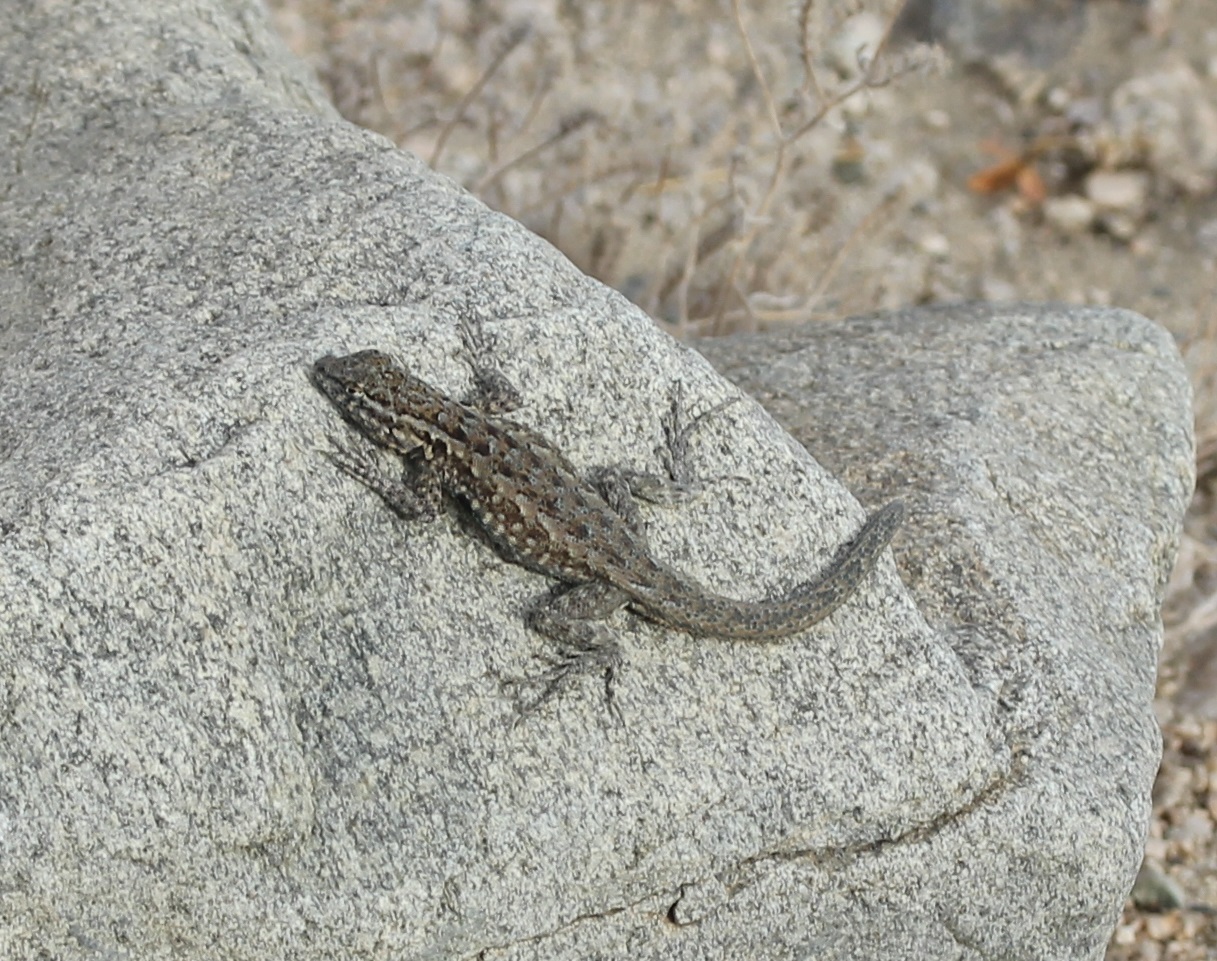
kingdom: Animalia
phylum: Chordata
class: Squamata
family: Phrynosomatidae
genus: Uta
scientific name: Uta stansburiana
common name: Side-blotched lizard
